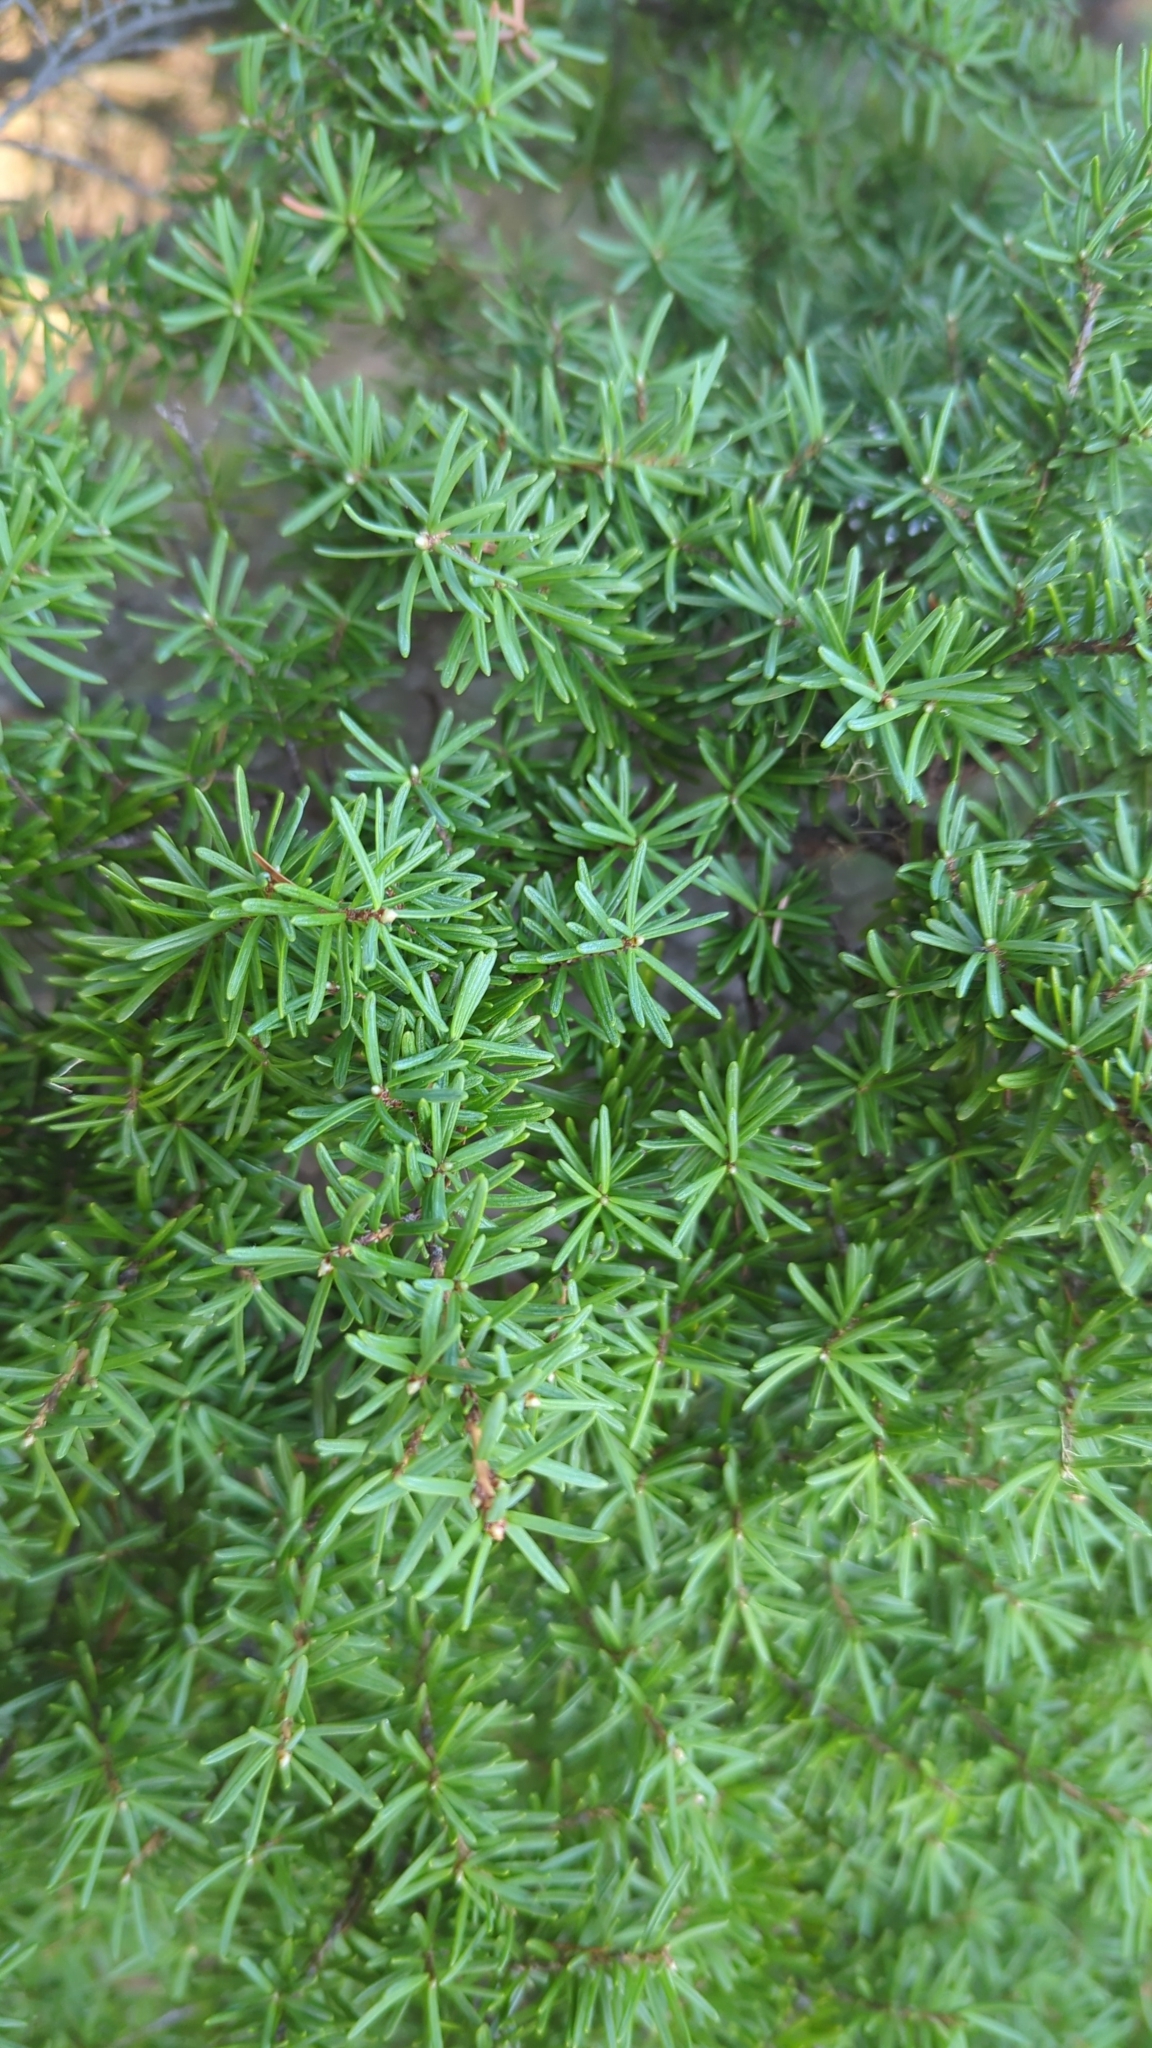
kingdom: Plantae
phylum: Tracheophyta
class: Pinopsida
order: Pinales
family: Pinaceae
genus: Tsuga
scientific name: Tsuga mertensiana
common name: Mountain hemlock
